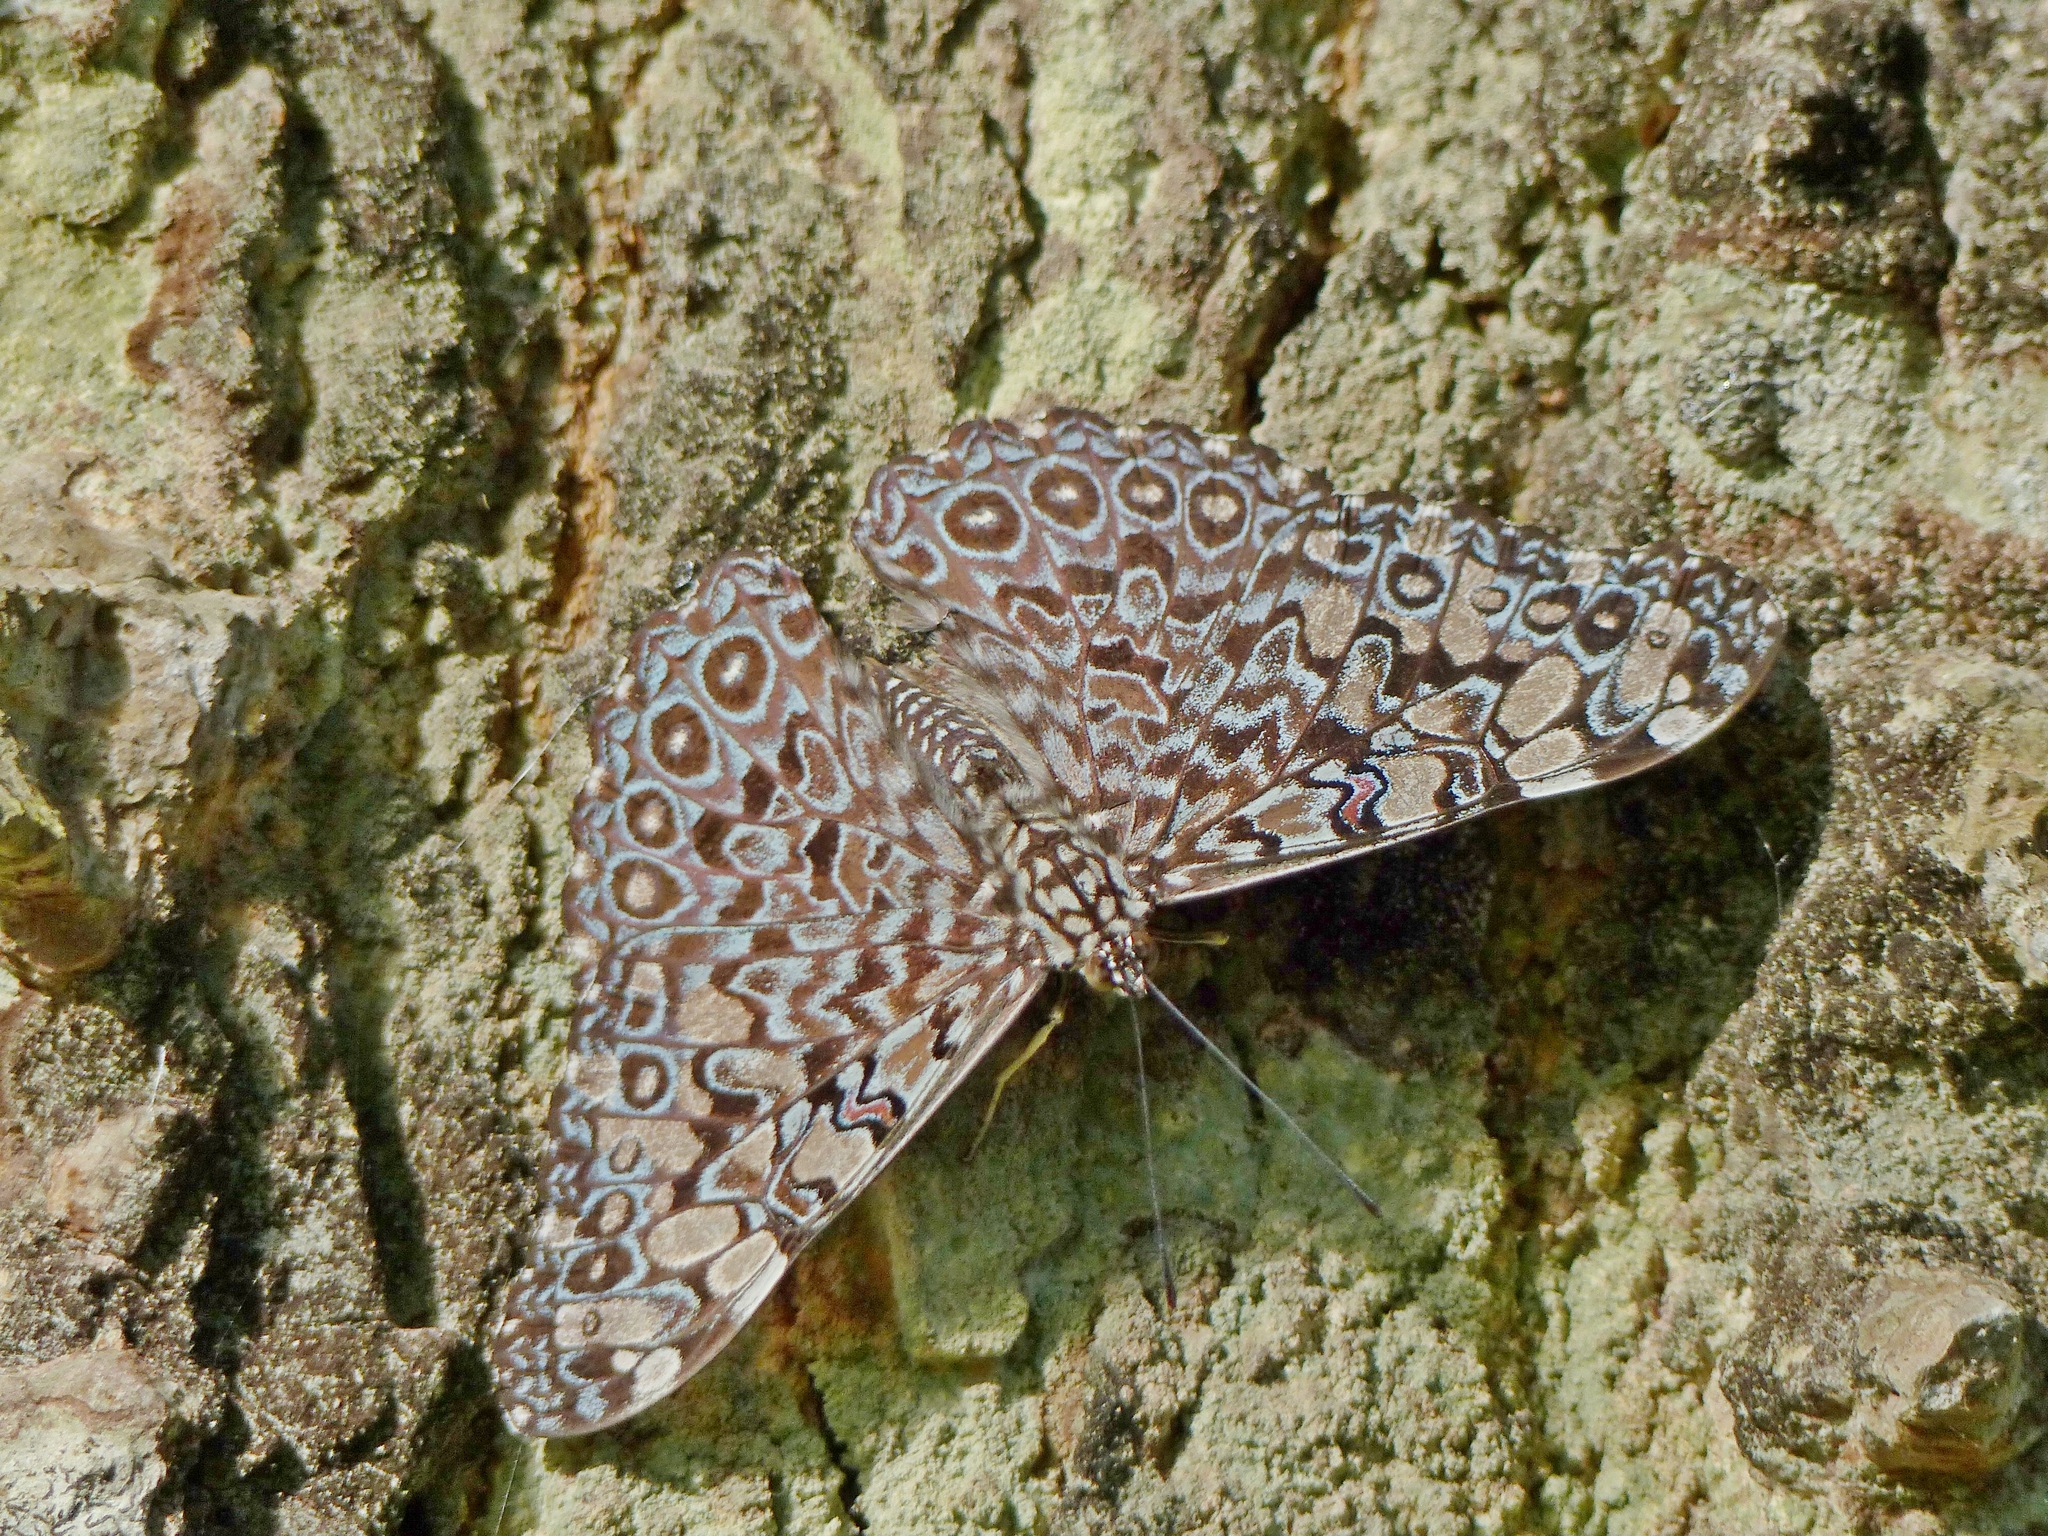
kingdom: Animalia
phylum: Arthropoda
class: Insecta
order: Lepidoptera
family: Nymphalidae
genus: Hamadryas
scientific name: Hamadryas feronia
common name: Variable cracker
